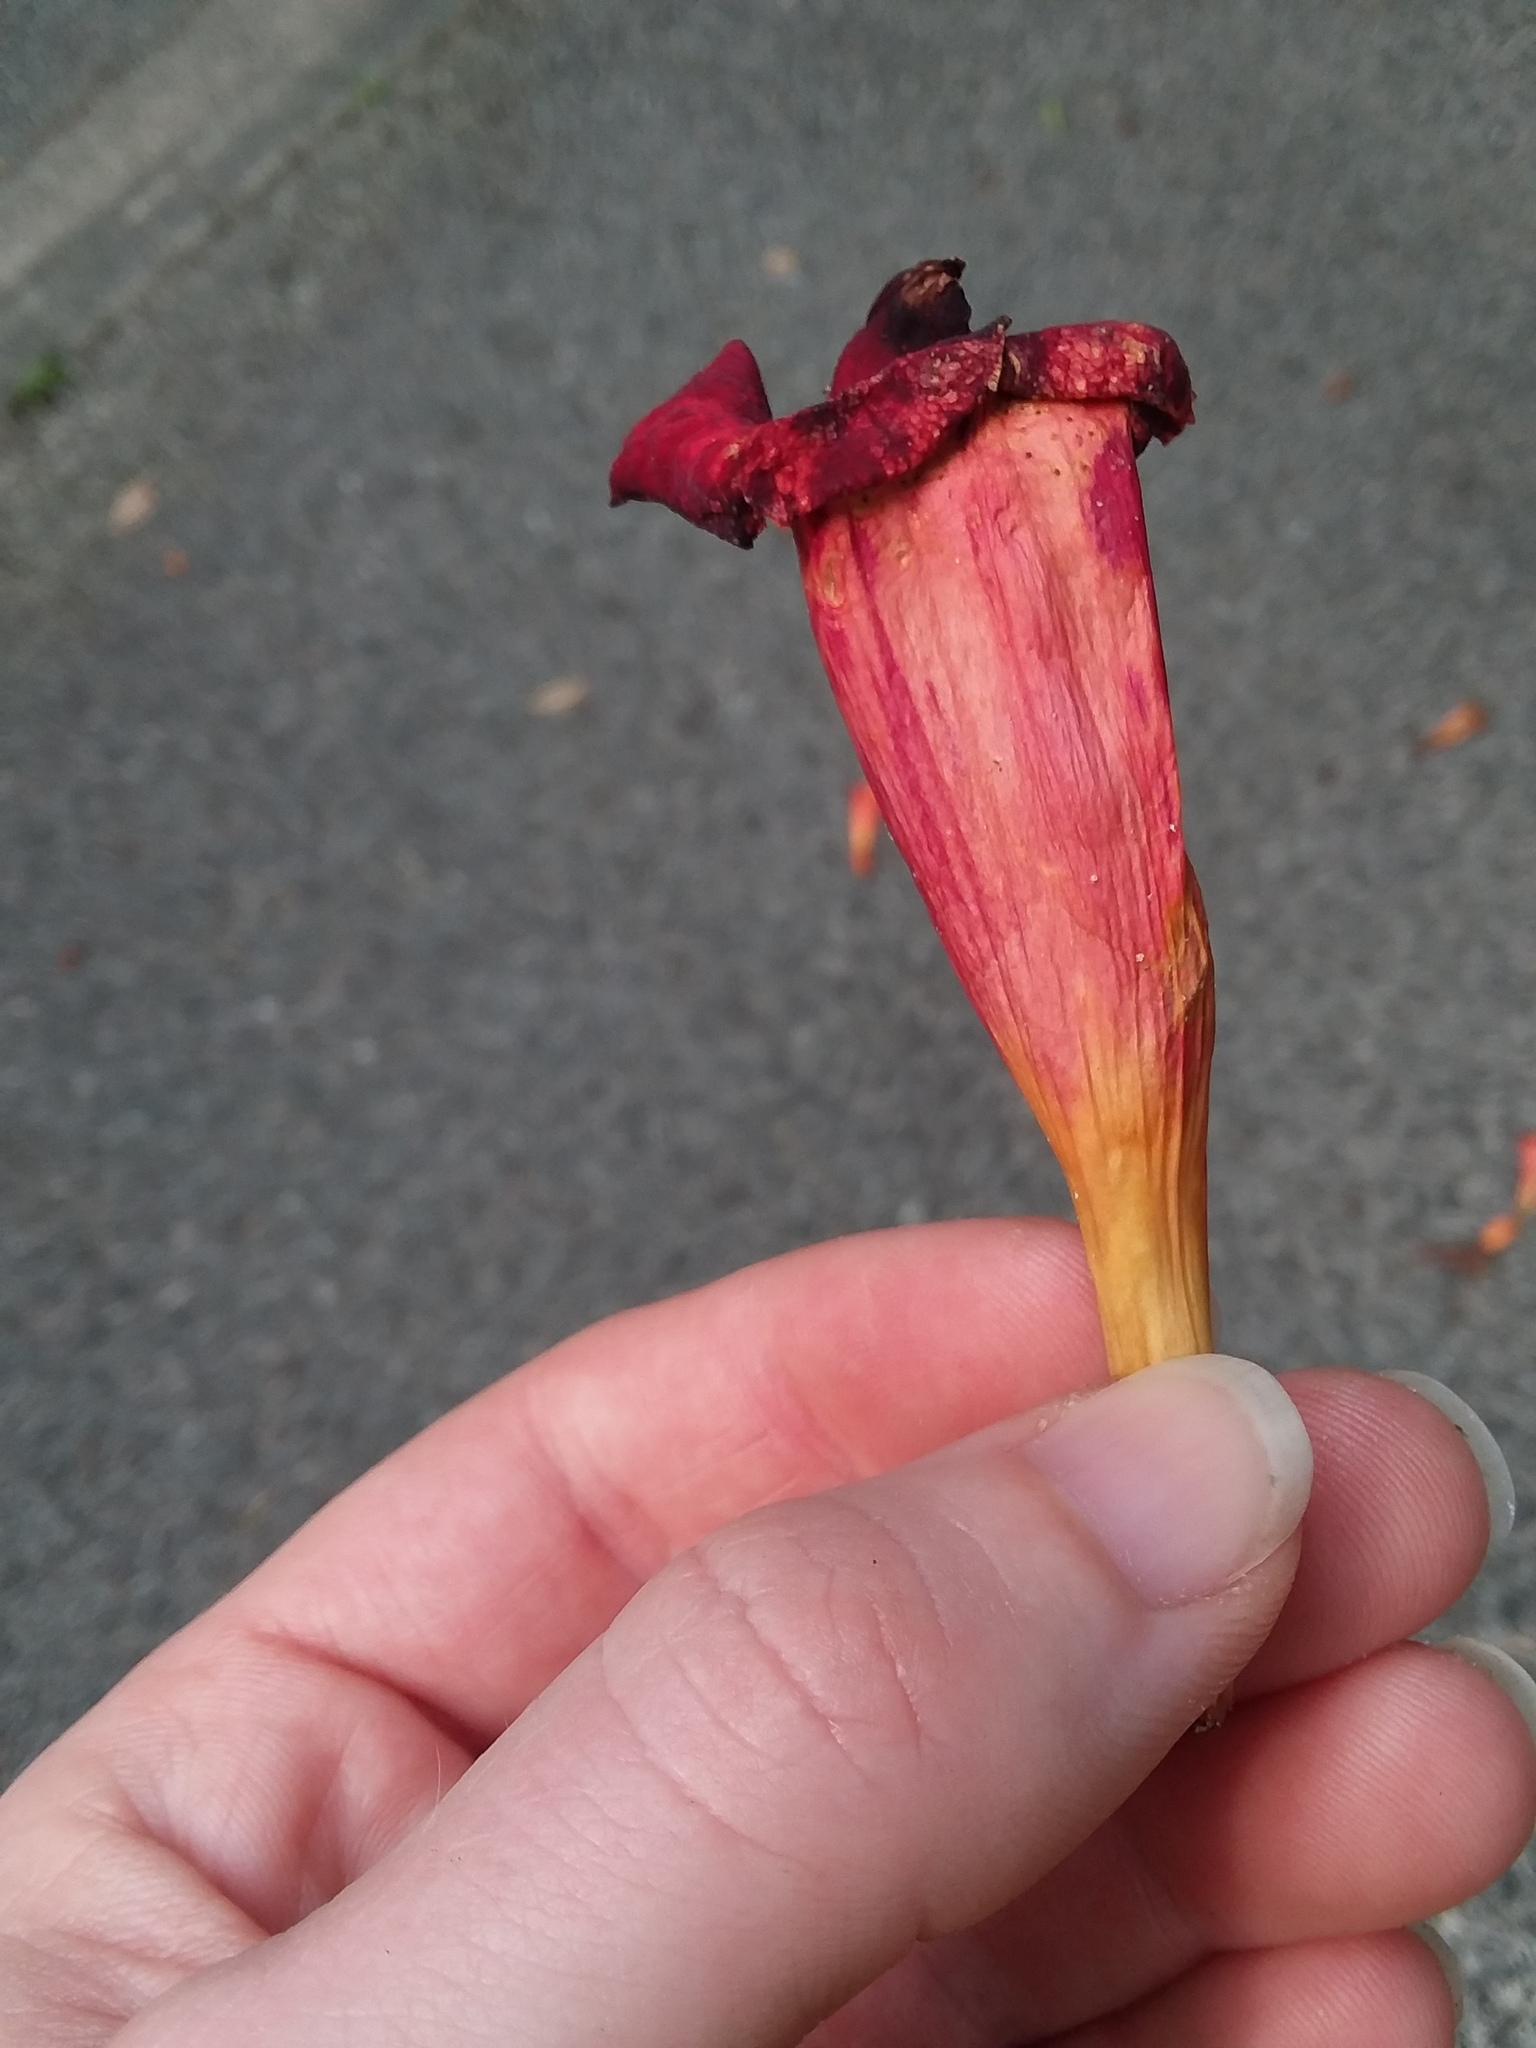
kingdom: Plantae
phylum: Tracheophyta
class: Magnoliopsida
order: Lamiales
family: Bignoniaceae
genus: Campsis
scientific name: Campsis radicans
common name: Trumpet-creeper
